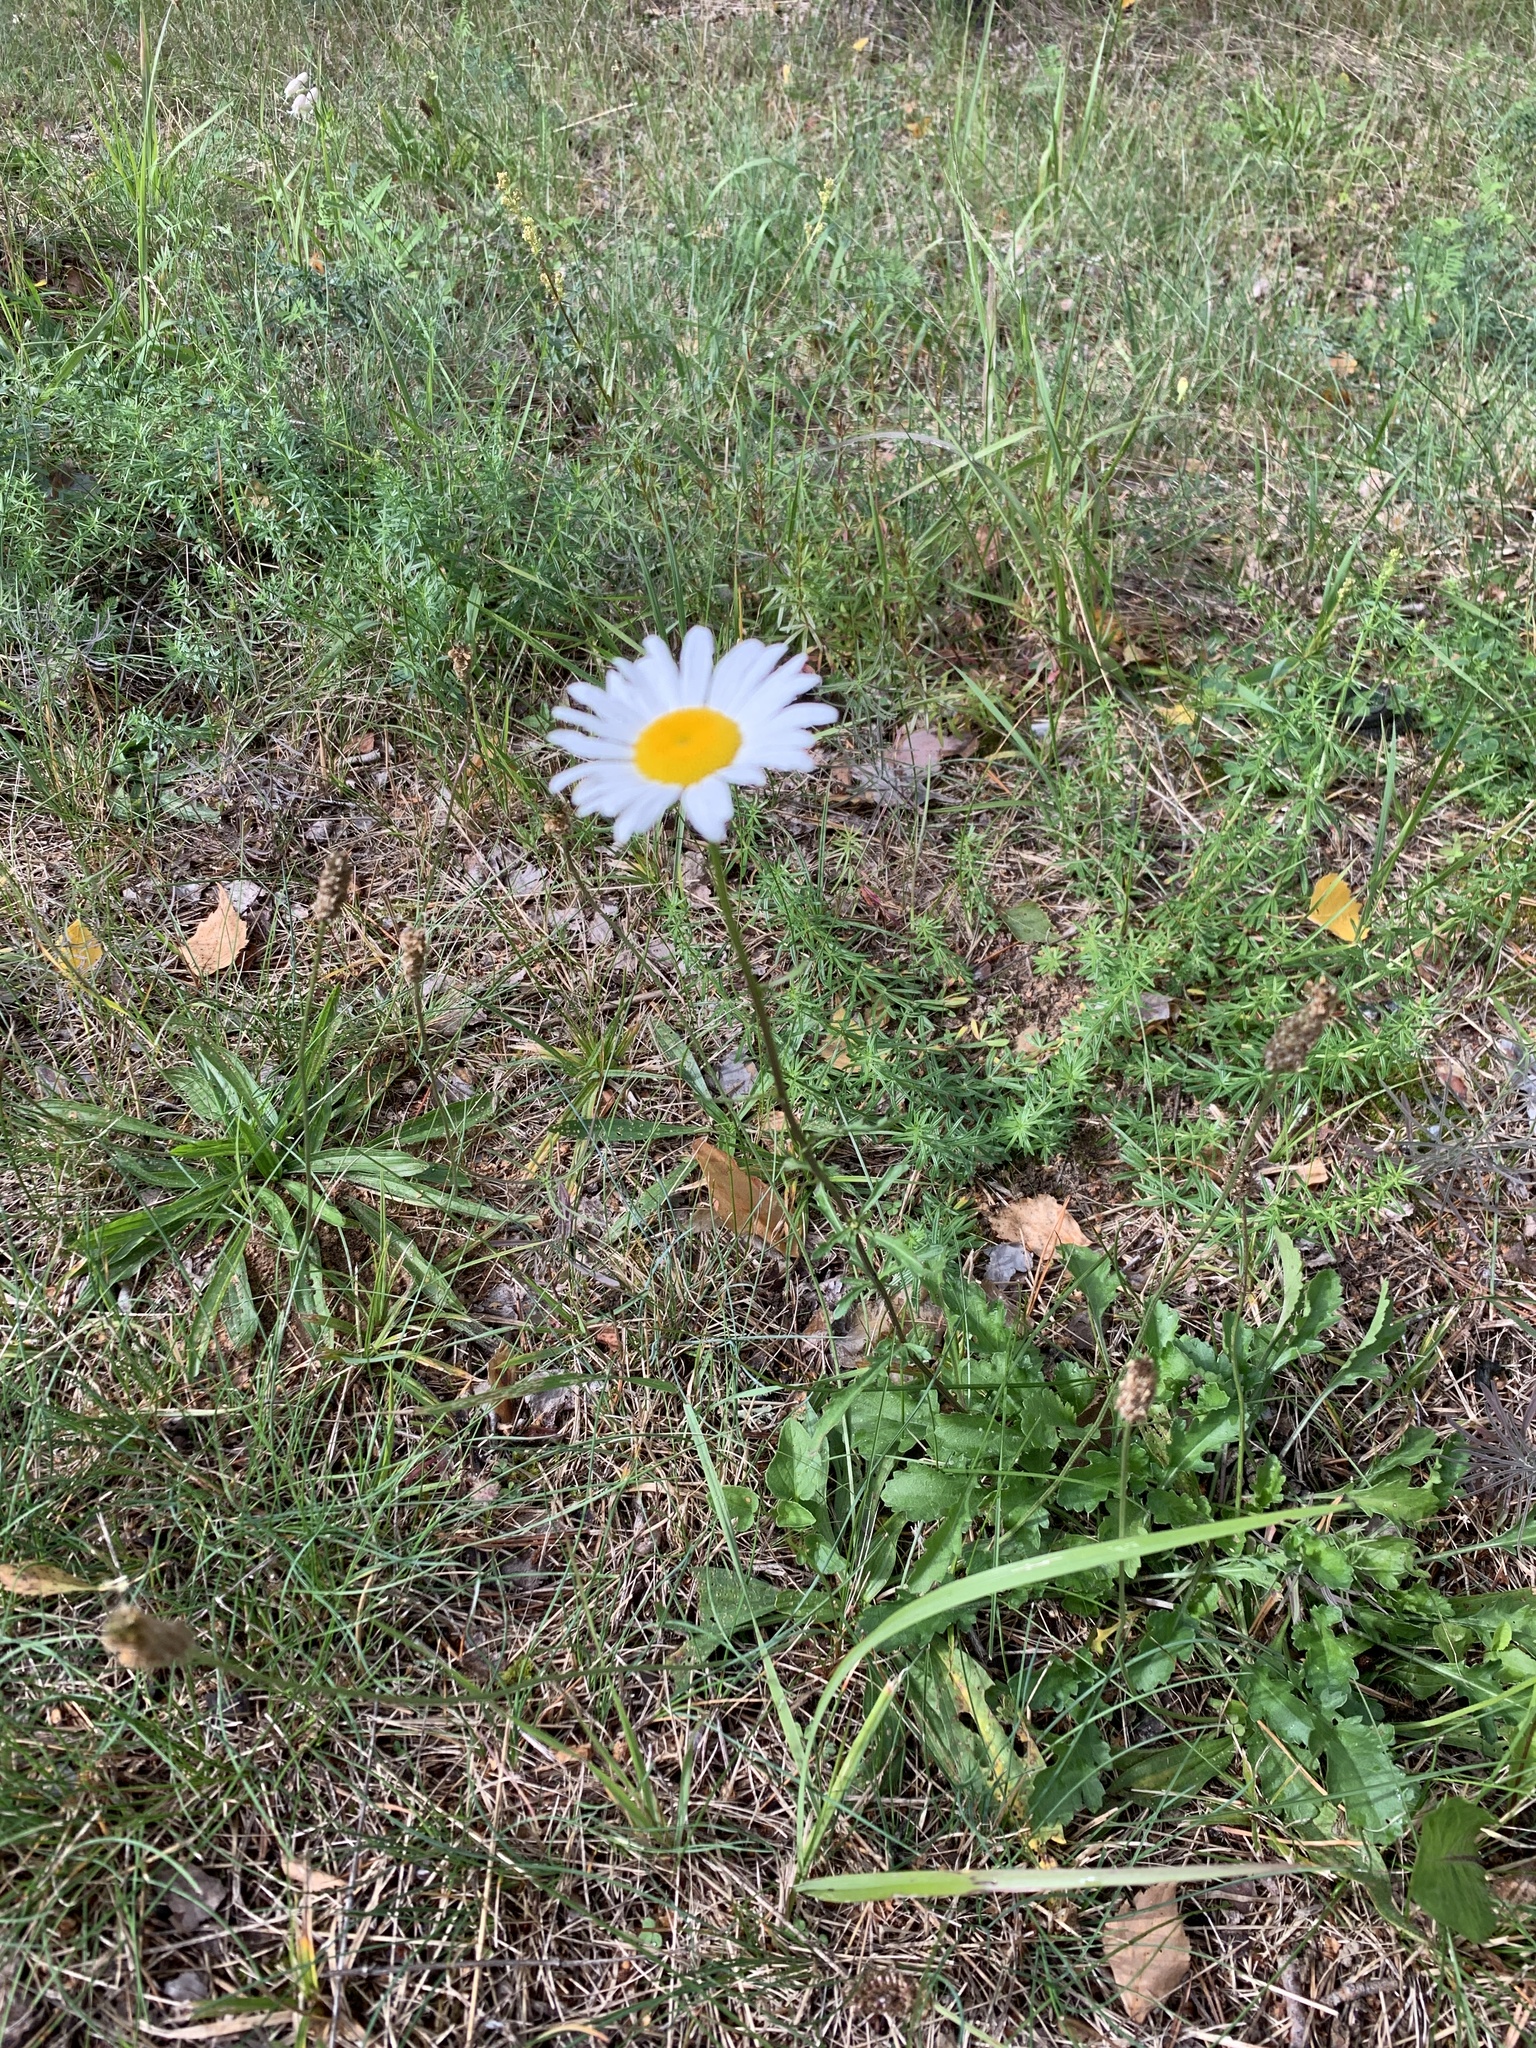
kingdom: Plantae
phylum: Tracheophyta
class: Magnoliopsida
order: Asterales
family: Asteraceae
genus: Leucanthemum
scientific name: Leucanthemum vulgare
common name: Oxeye daisy
